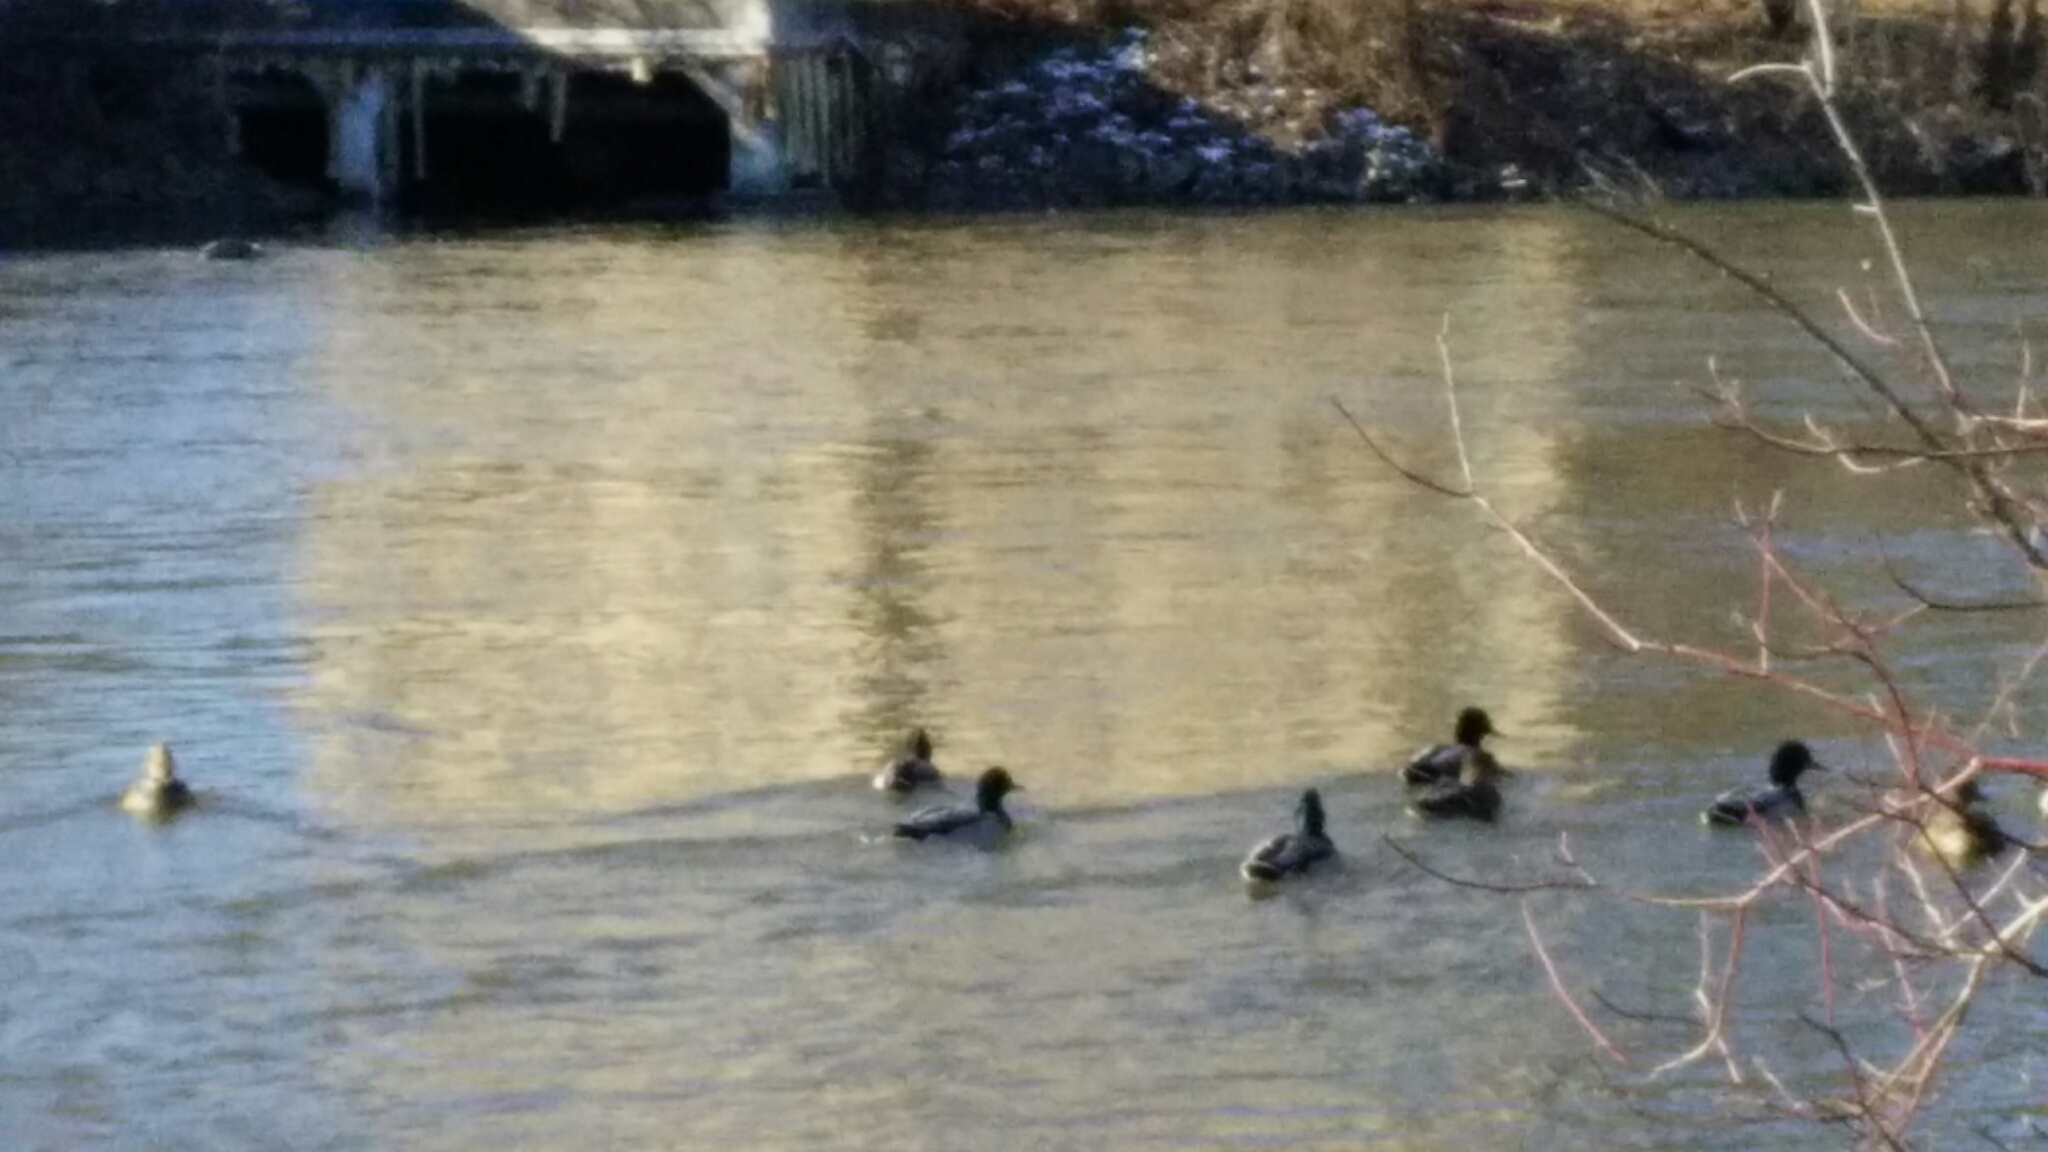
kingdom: Animalia
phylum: Chordata
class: Aves
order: Anseriformes
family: Anatidae
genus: Anas
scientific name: Anas platyrhynchos
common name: Mallard
